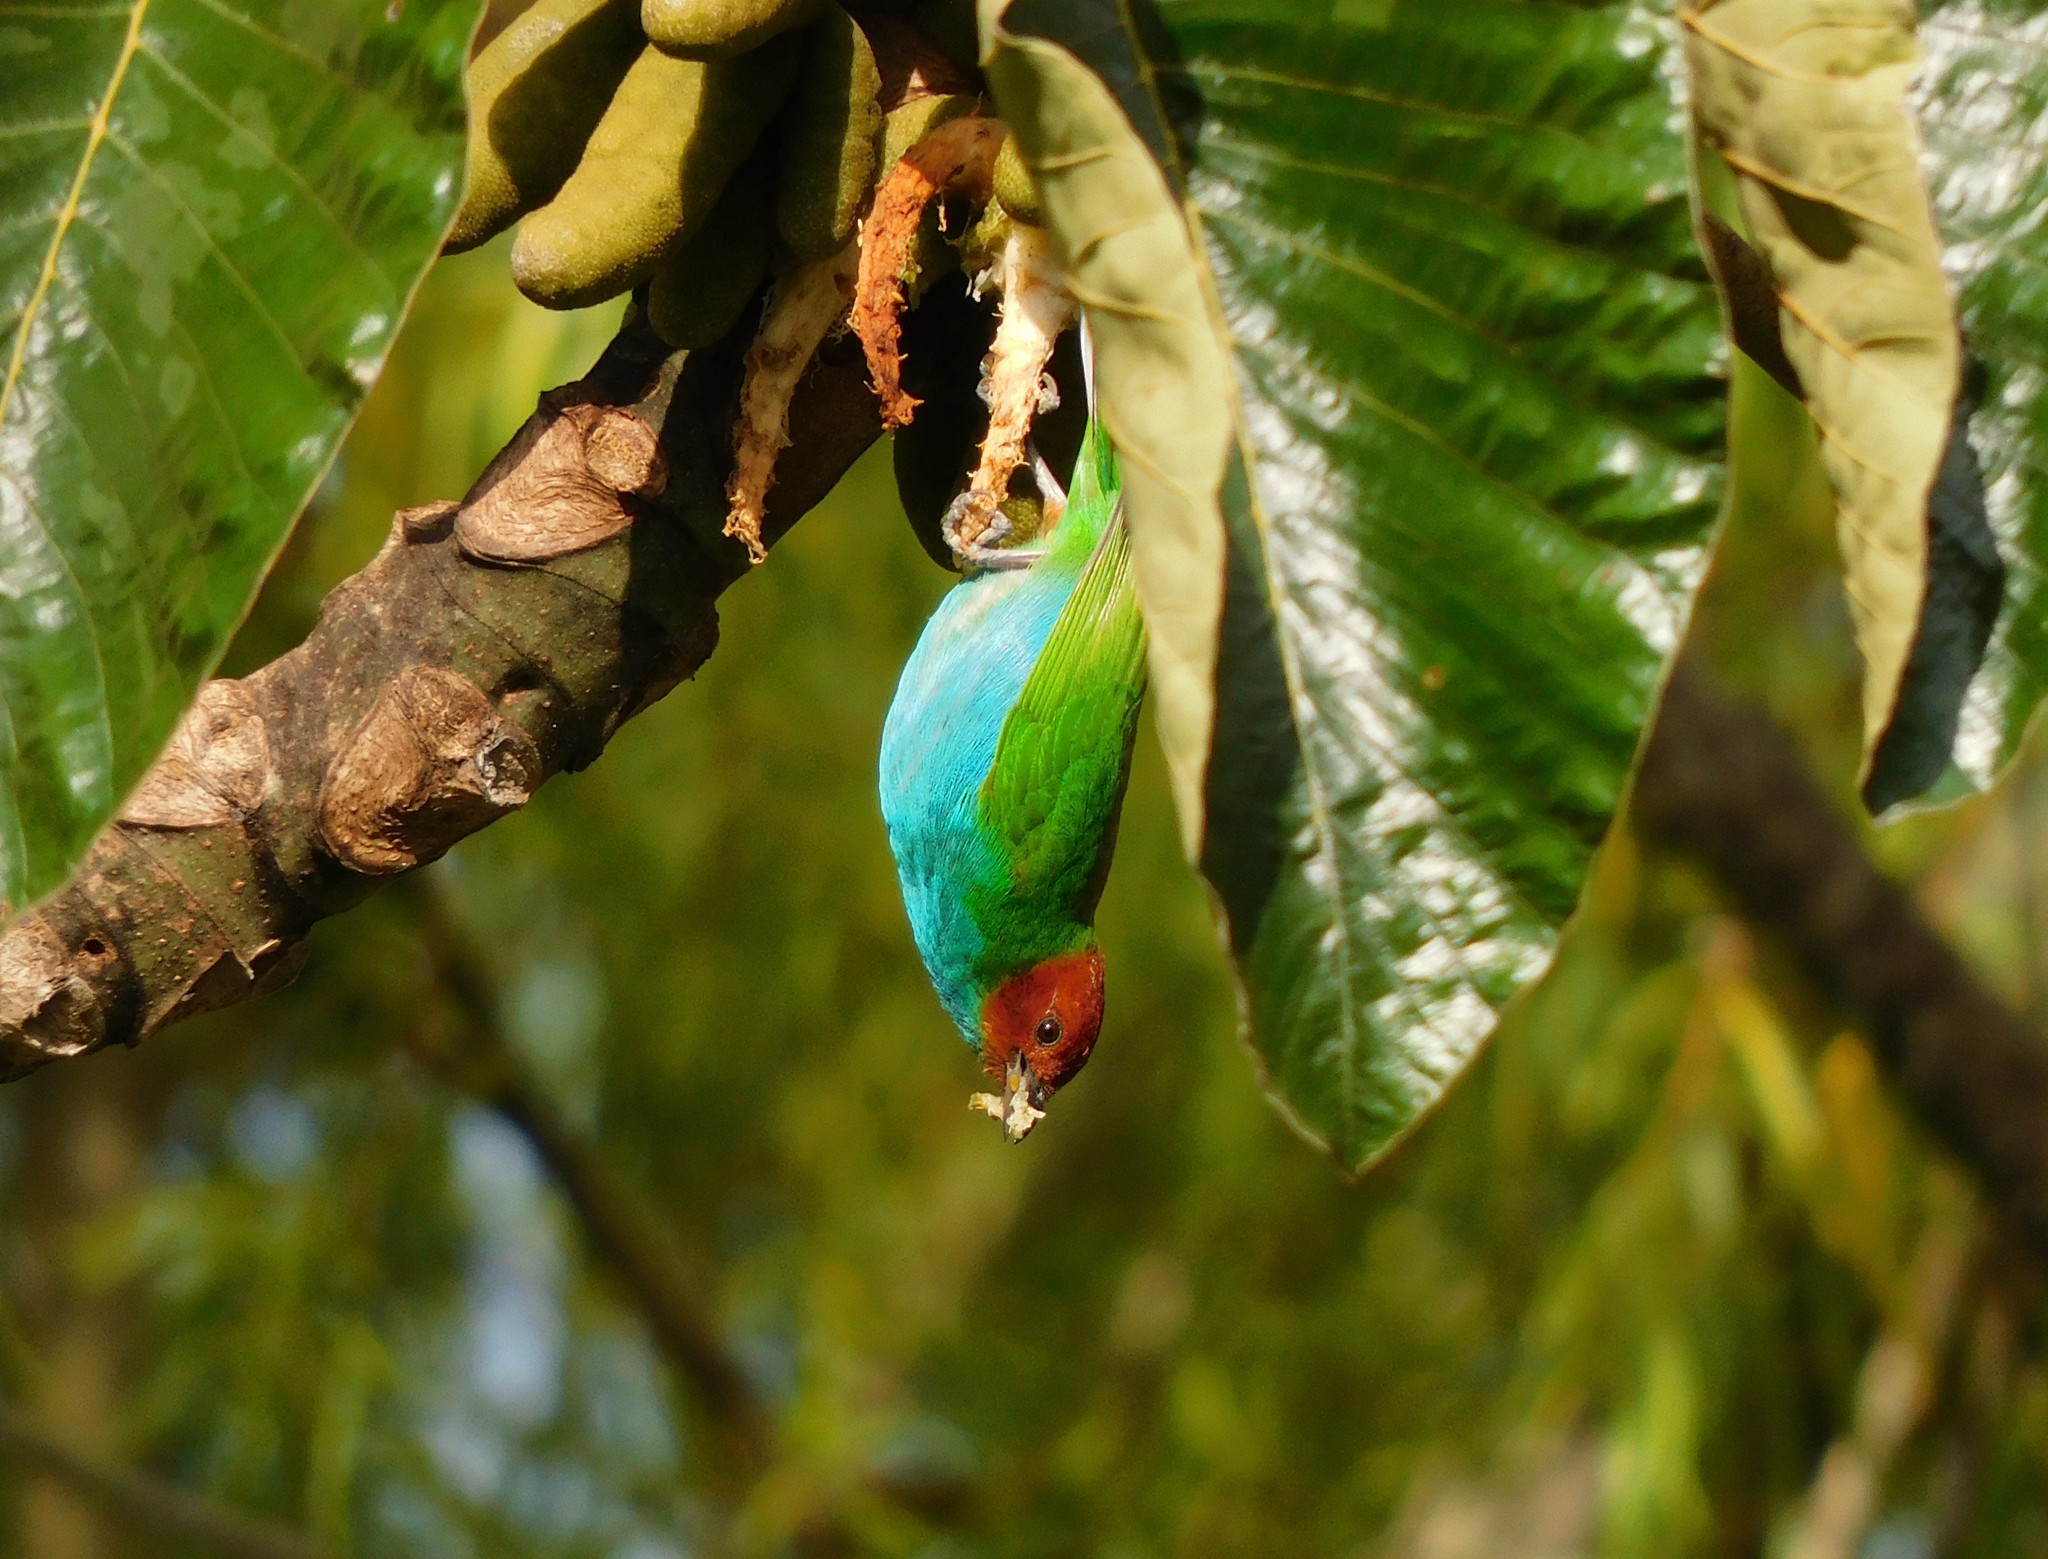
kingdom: Animalia
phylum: Chordata
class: Aves
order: Passeriformes
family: Thraupidae
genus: Tangara
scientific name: Tangara gyrola
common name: Bay-headed tanager
